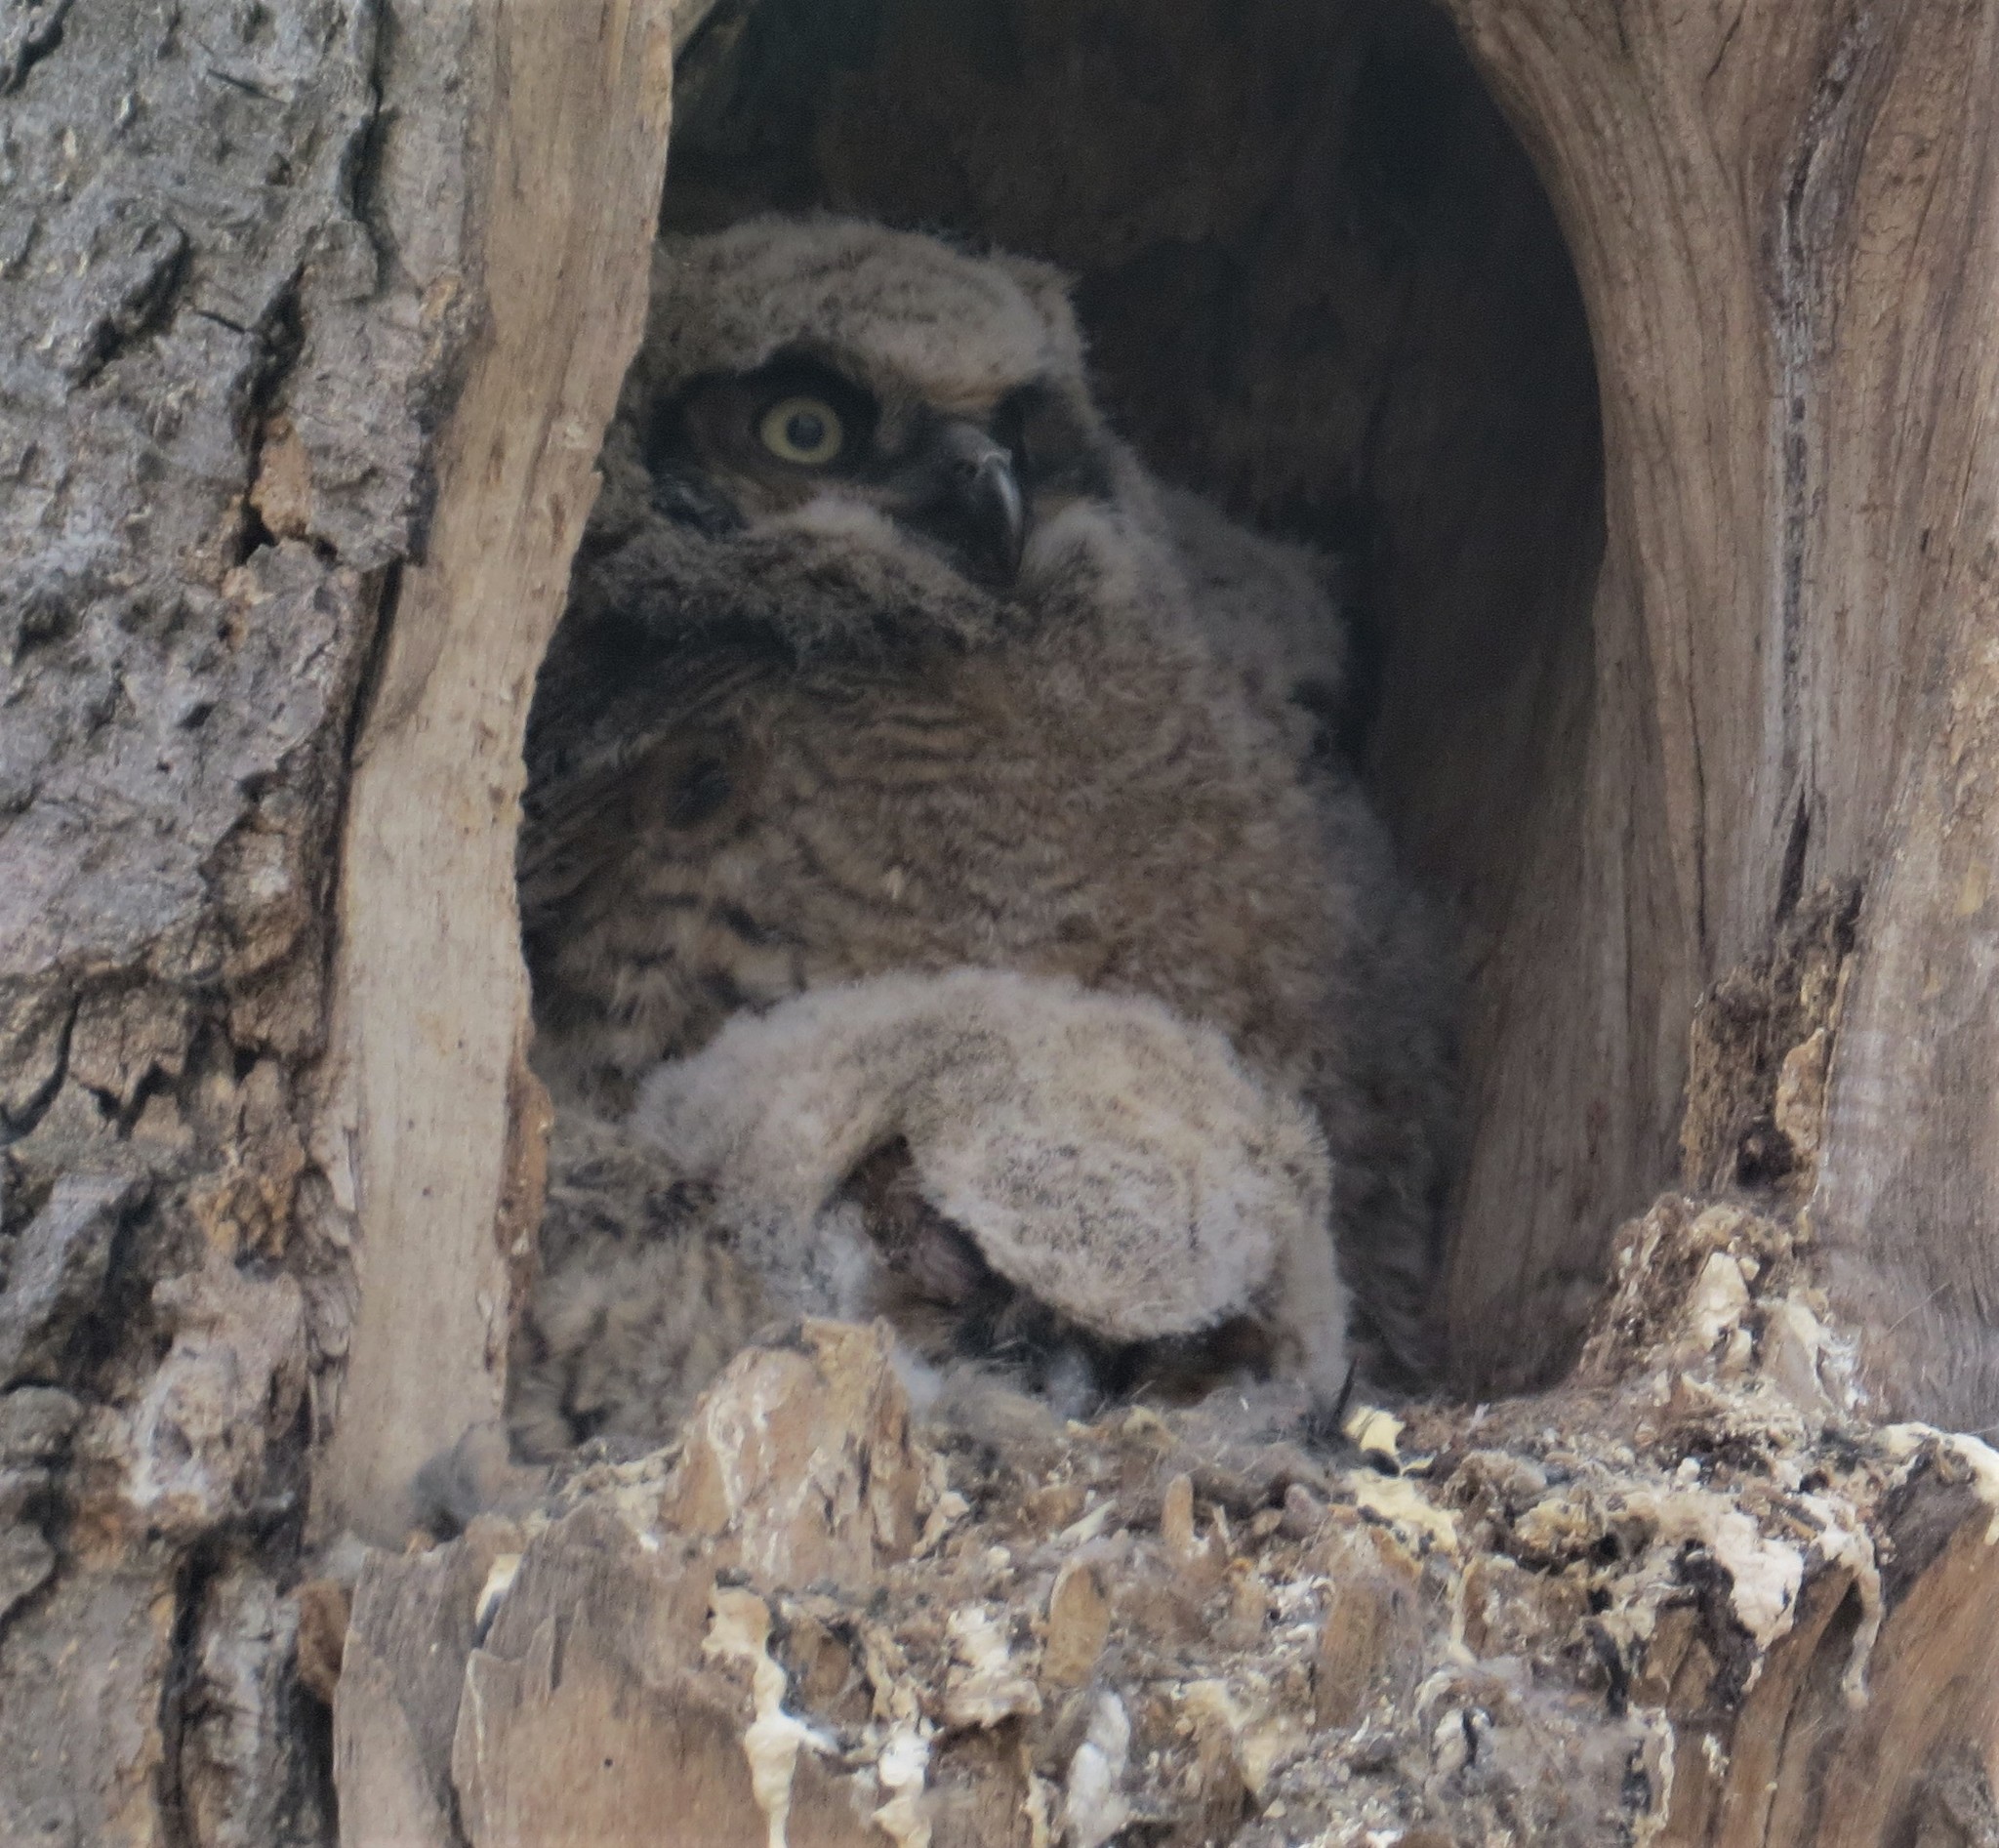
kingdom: Animalia
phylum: Chordata
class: Aves
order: Strigiformes
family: Strigidae
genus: Bubo
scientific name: Bubo virginianus
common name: Great horned owl
